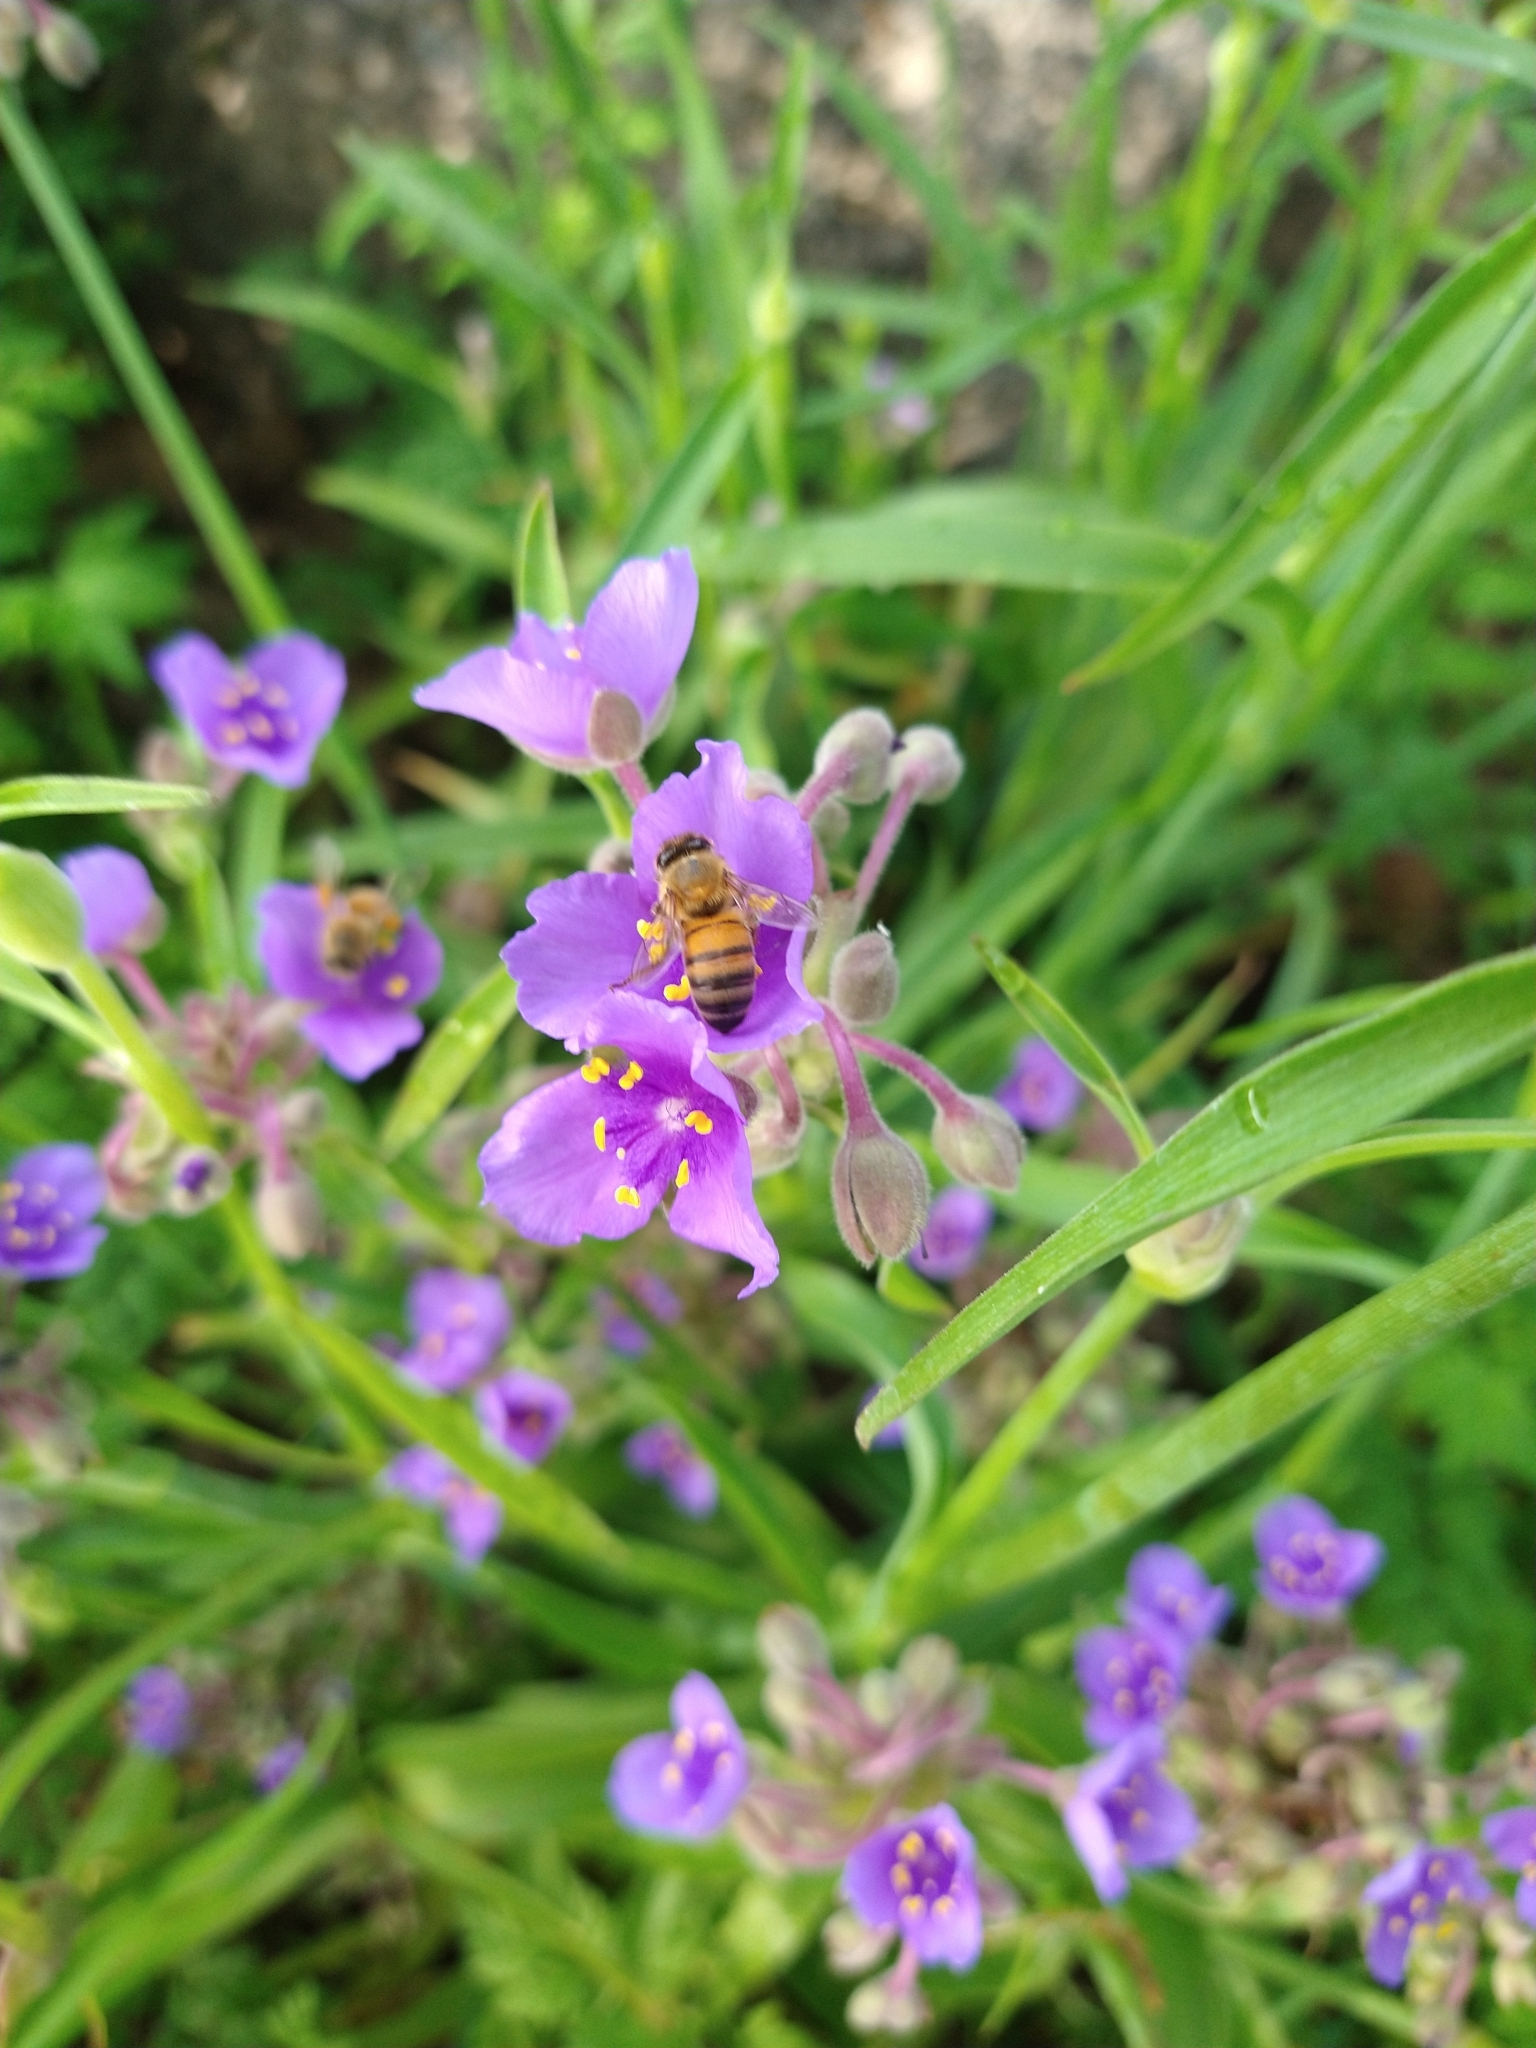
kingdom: Animalia
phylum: Arthropoda
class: Insecta
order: Hymenoptera
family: Apidae
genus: Apis
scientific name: Apis mellifera
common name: Honey bee
